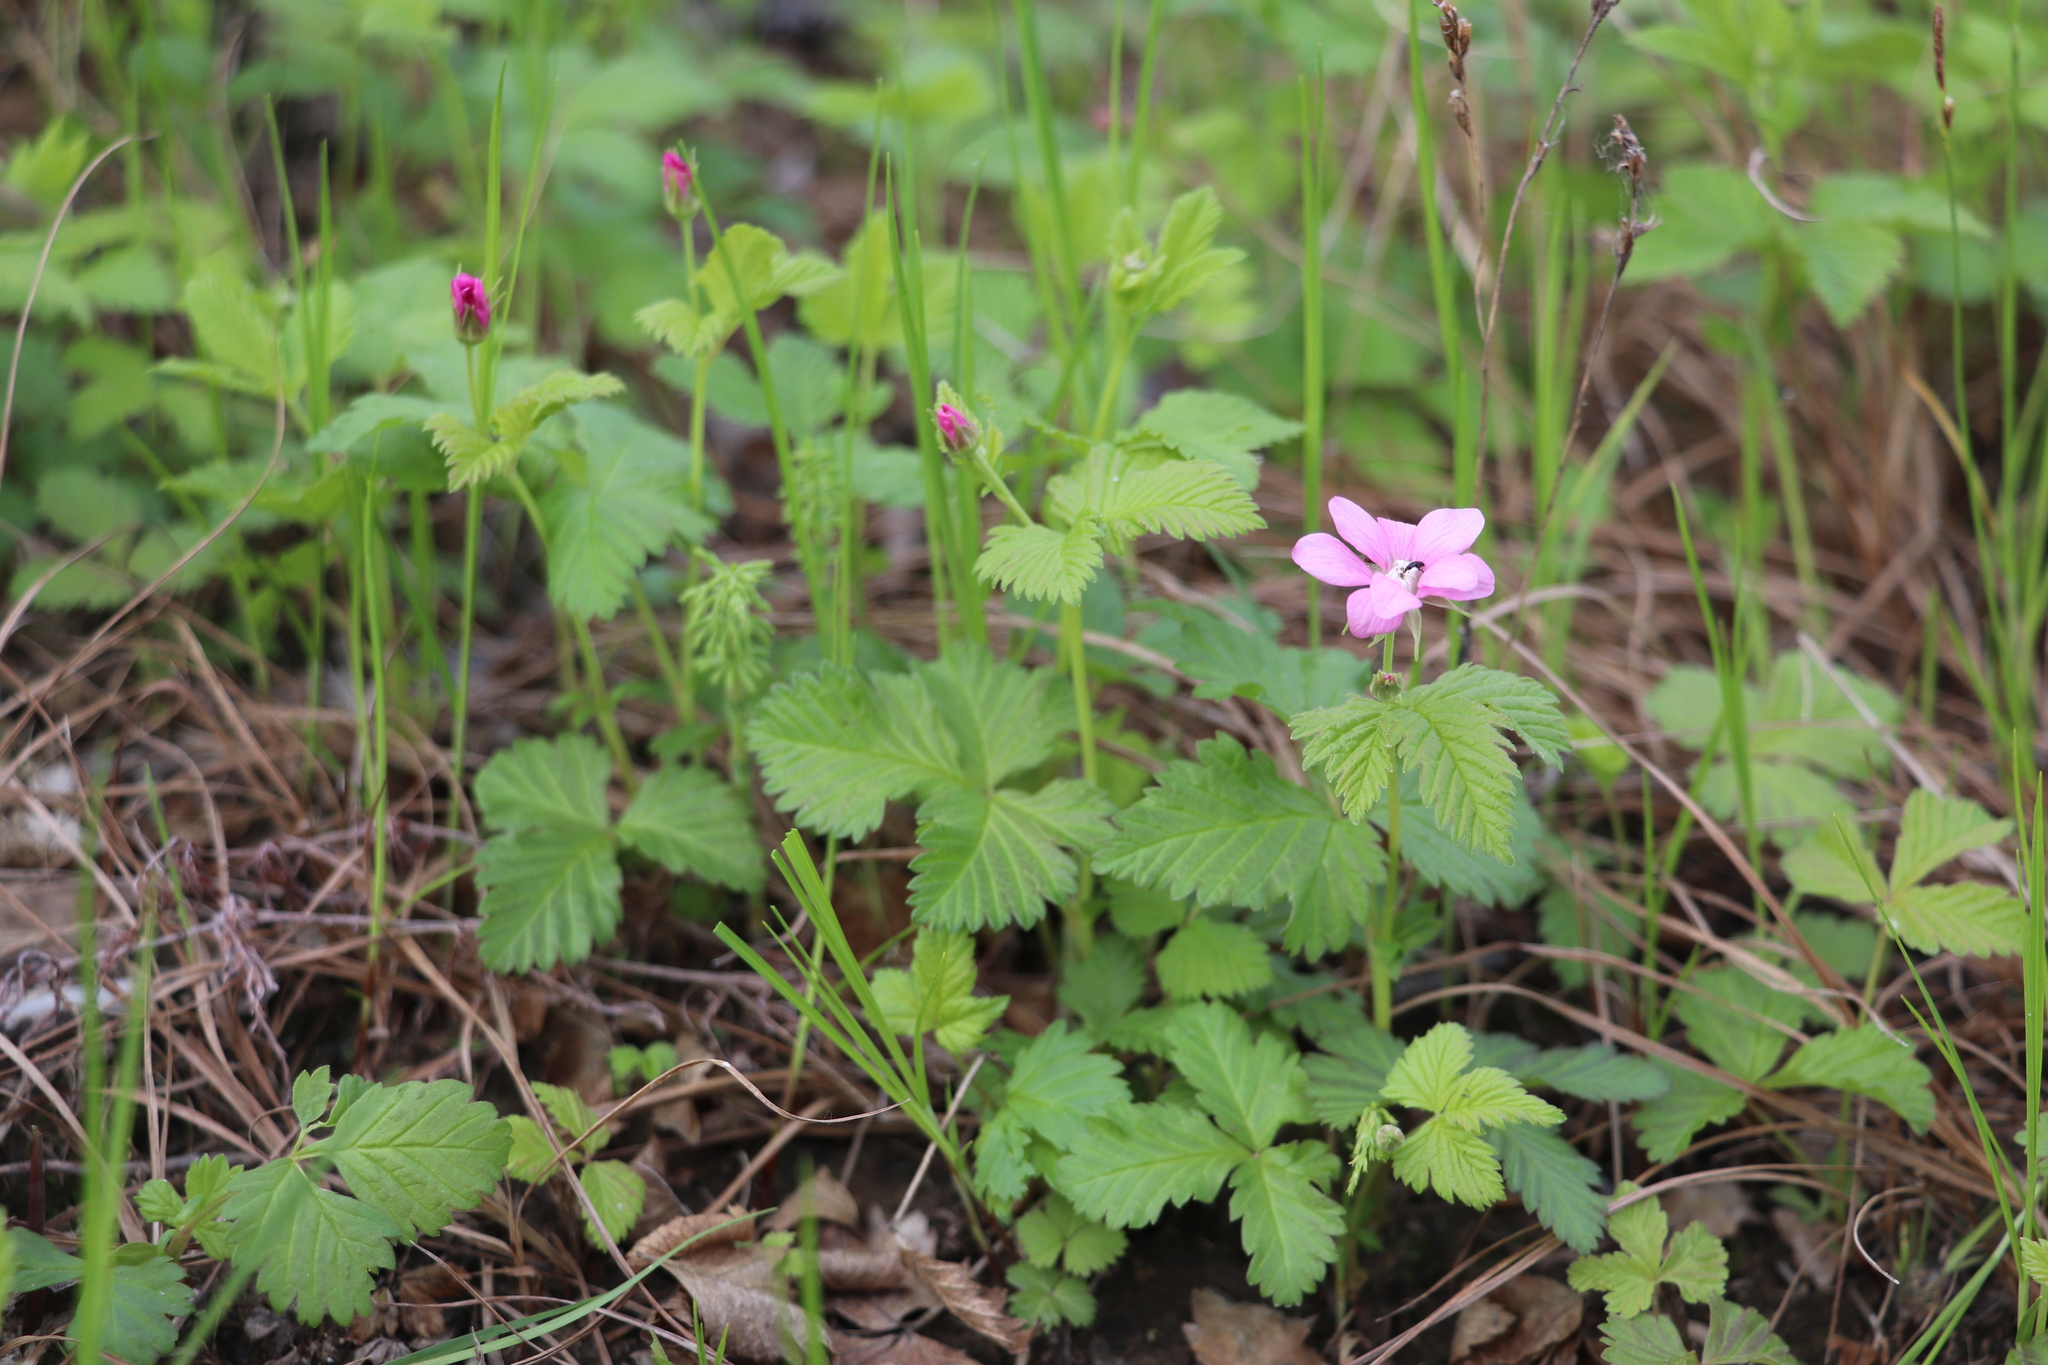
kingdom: Plantae
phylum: Tracheophyta
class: Magnoliopsida
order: Rosales
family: Rosaceae
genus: Rubus
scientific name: Rubus arcticus
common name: Arctic bramble
